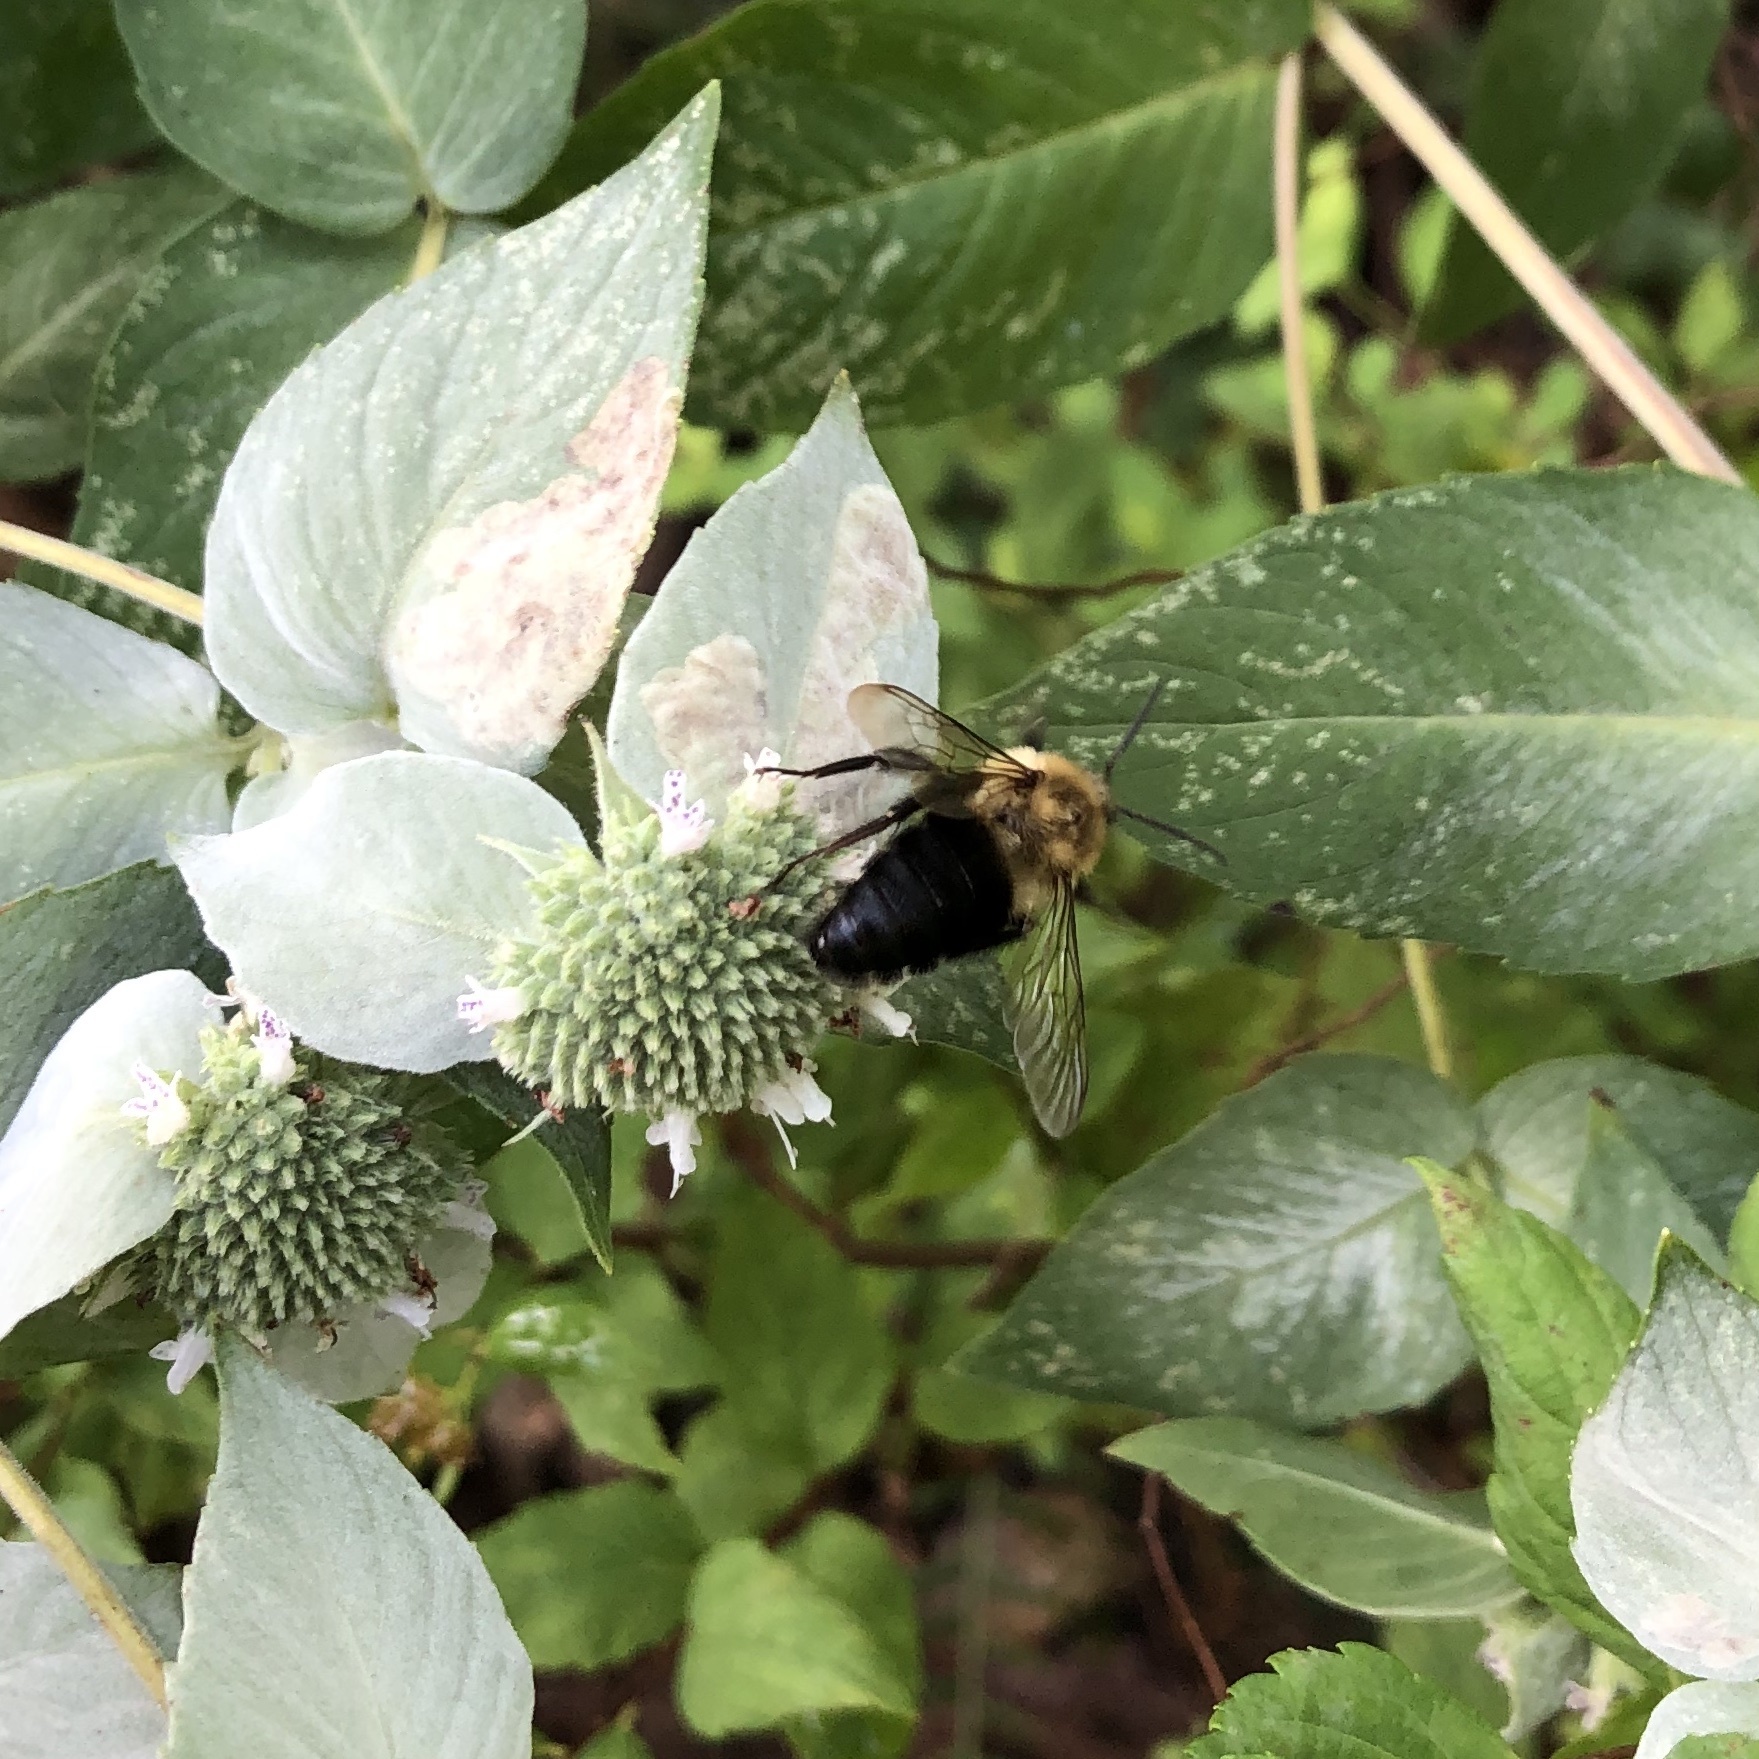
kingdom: Animalia
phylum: Arthropoda
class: Insecta
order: Hymenoptera
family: Apidae
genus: Bombus
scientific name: Bombus impatiens
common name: Common eastern bumble bee
